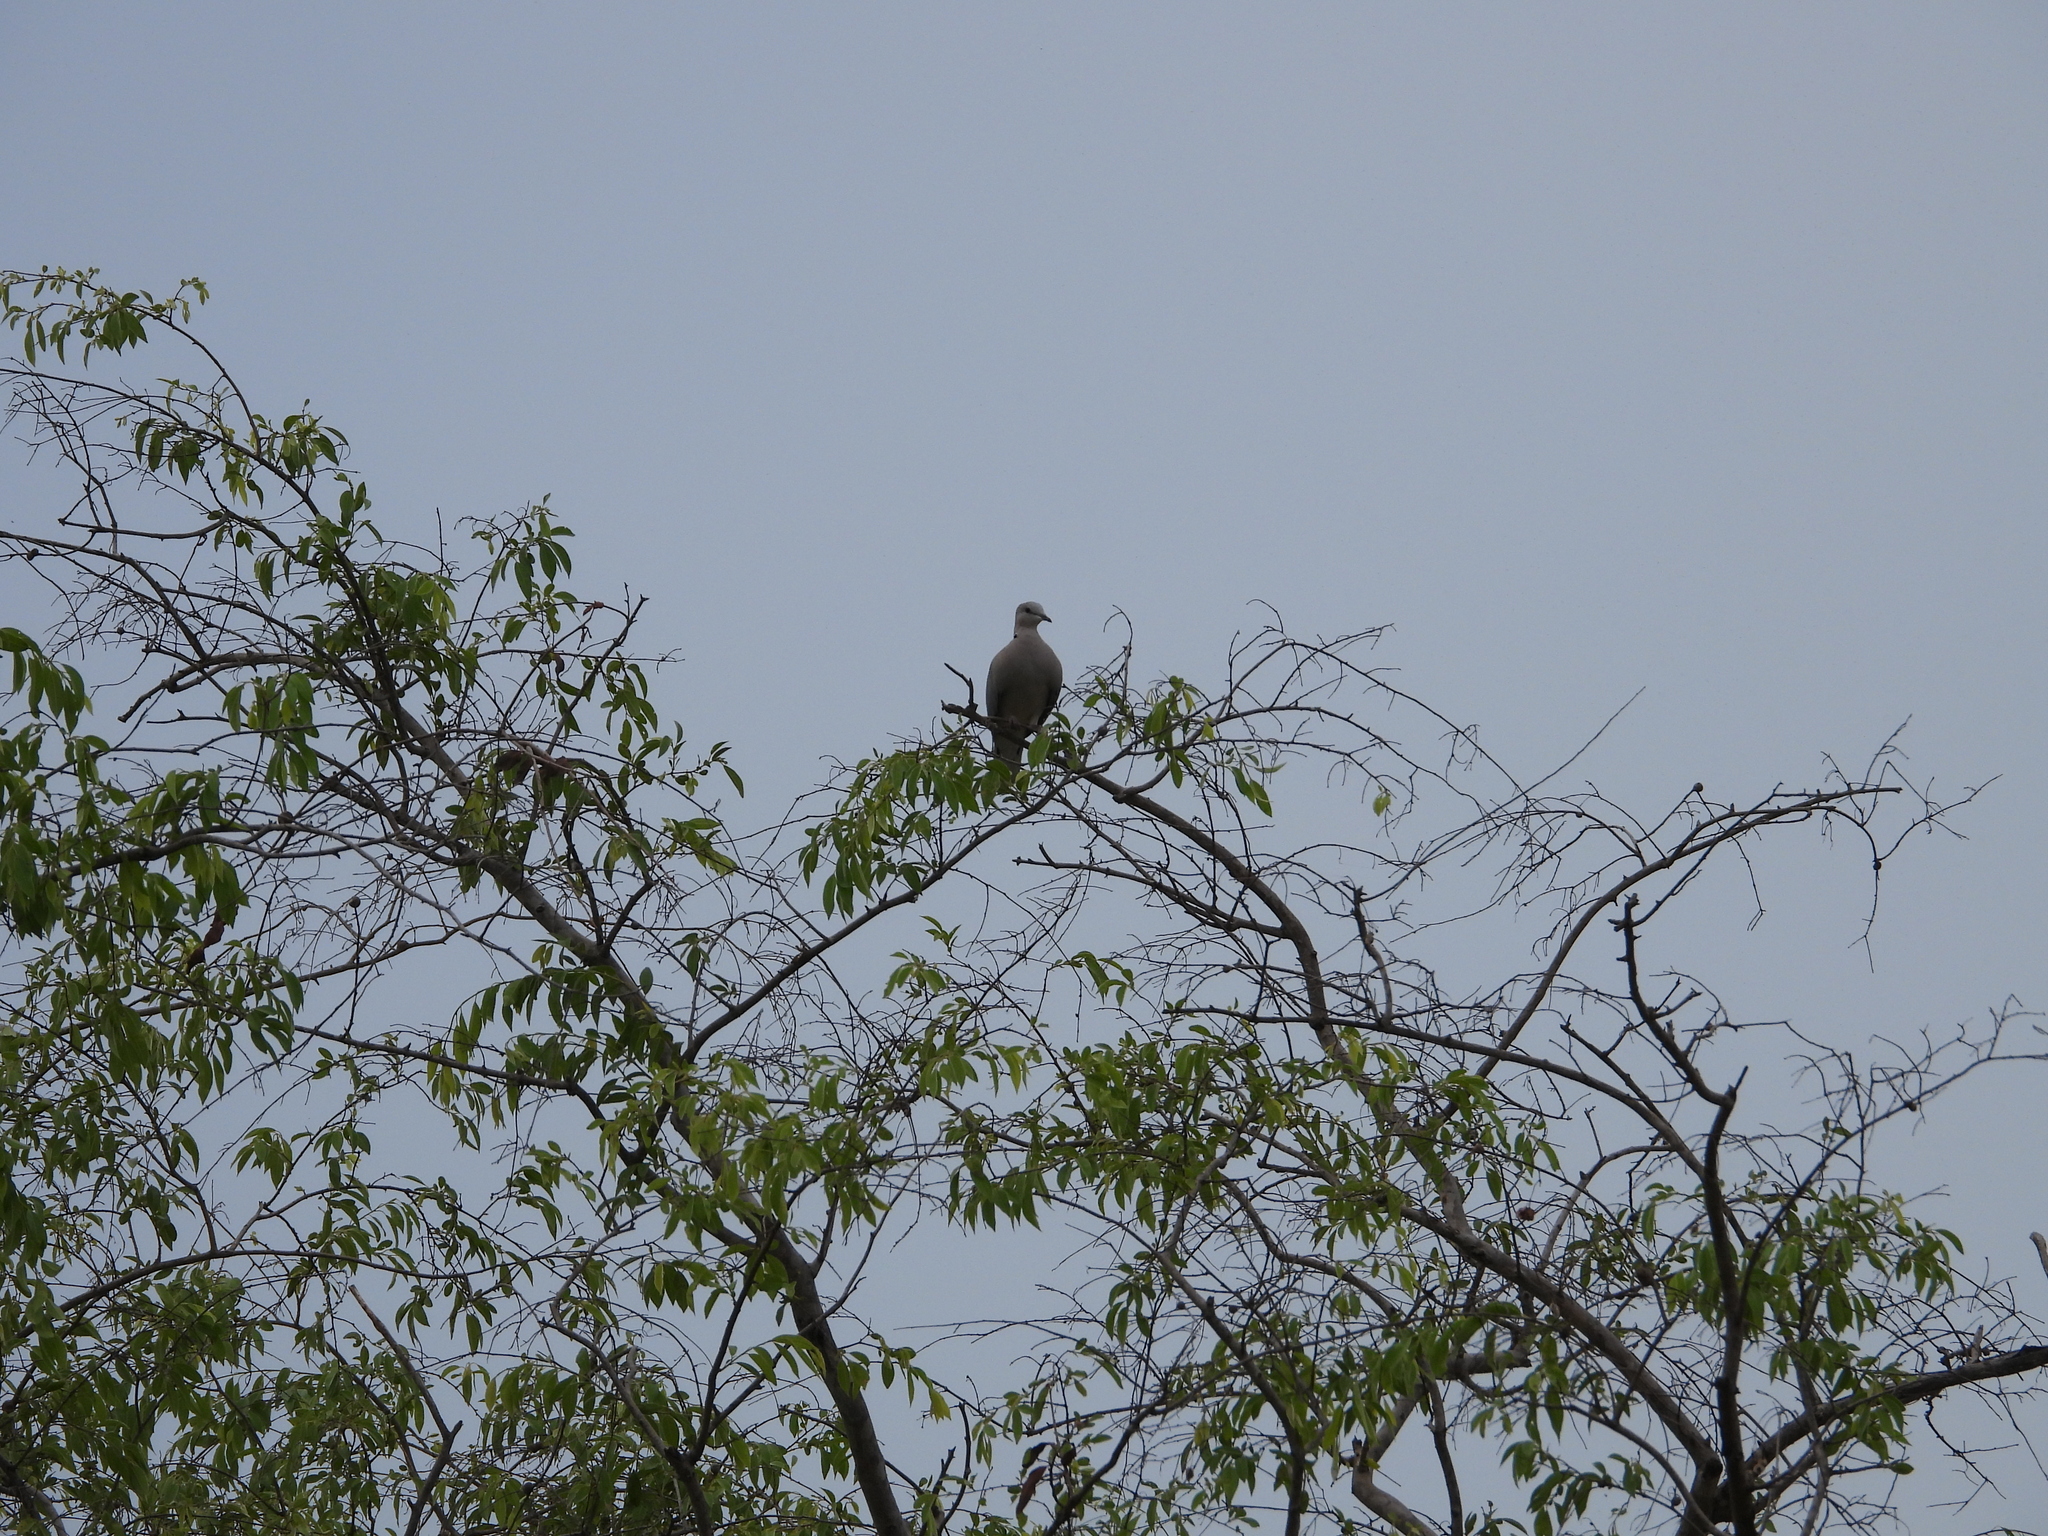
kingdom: Animalia
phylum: Chordata
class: Aves
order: Columbiformes
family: Columbidae
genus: Streptopelia
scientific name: Streptopelia capicola
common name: Ring-necked dove
